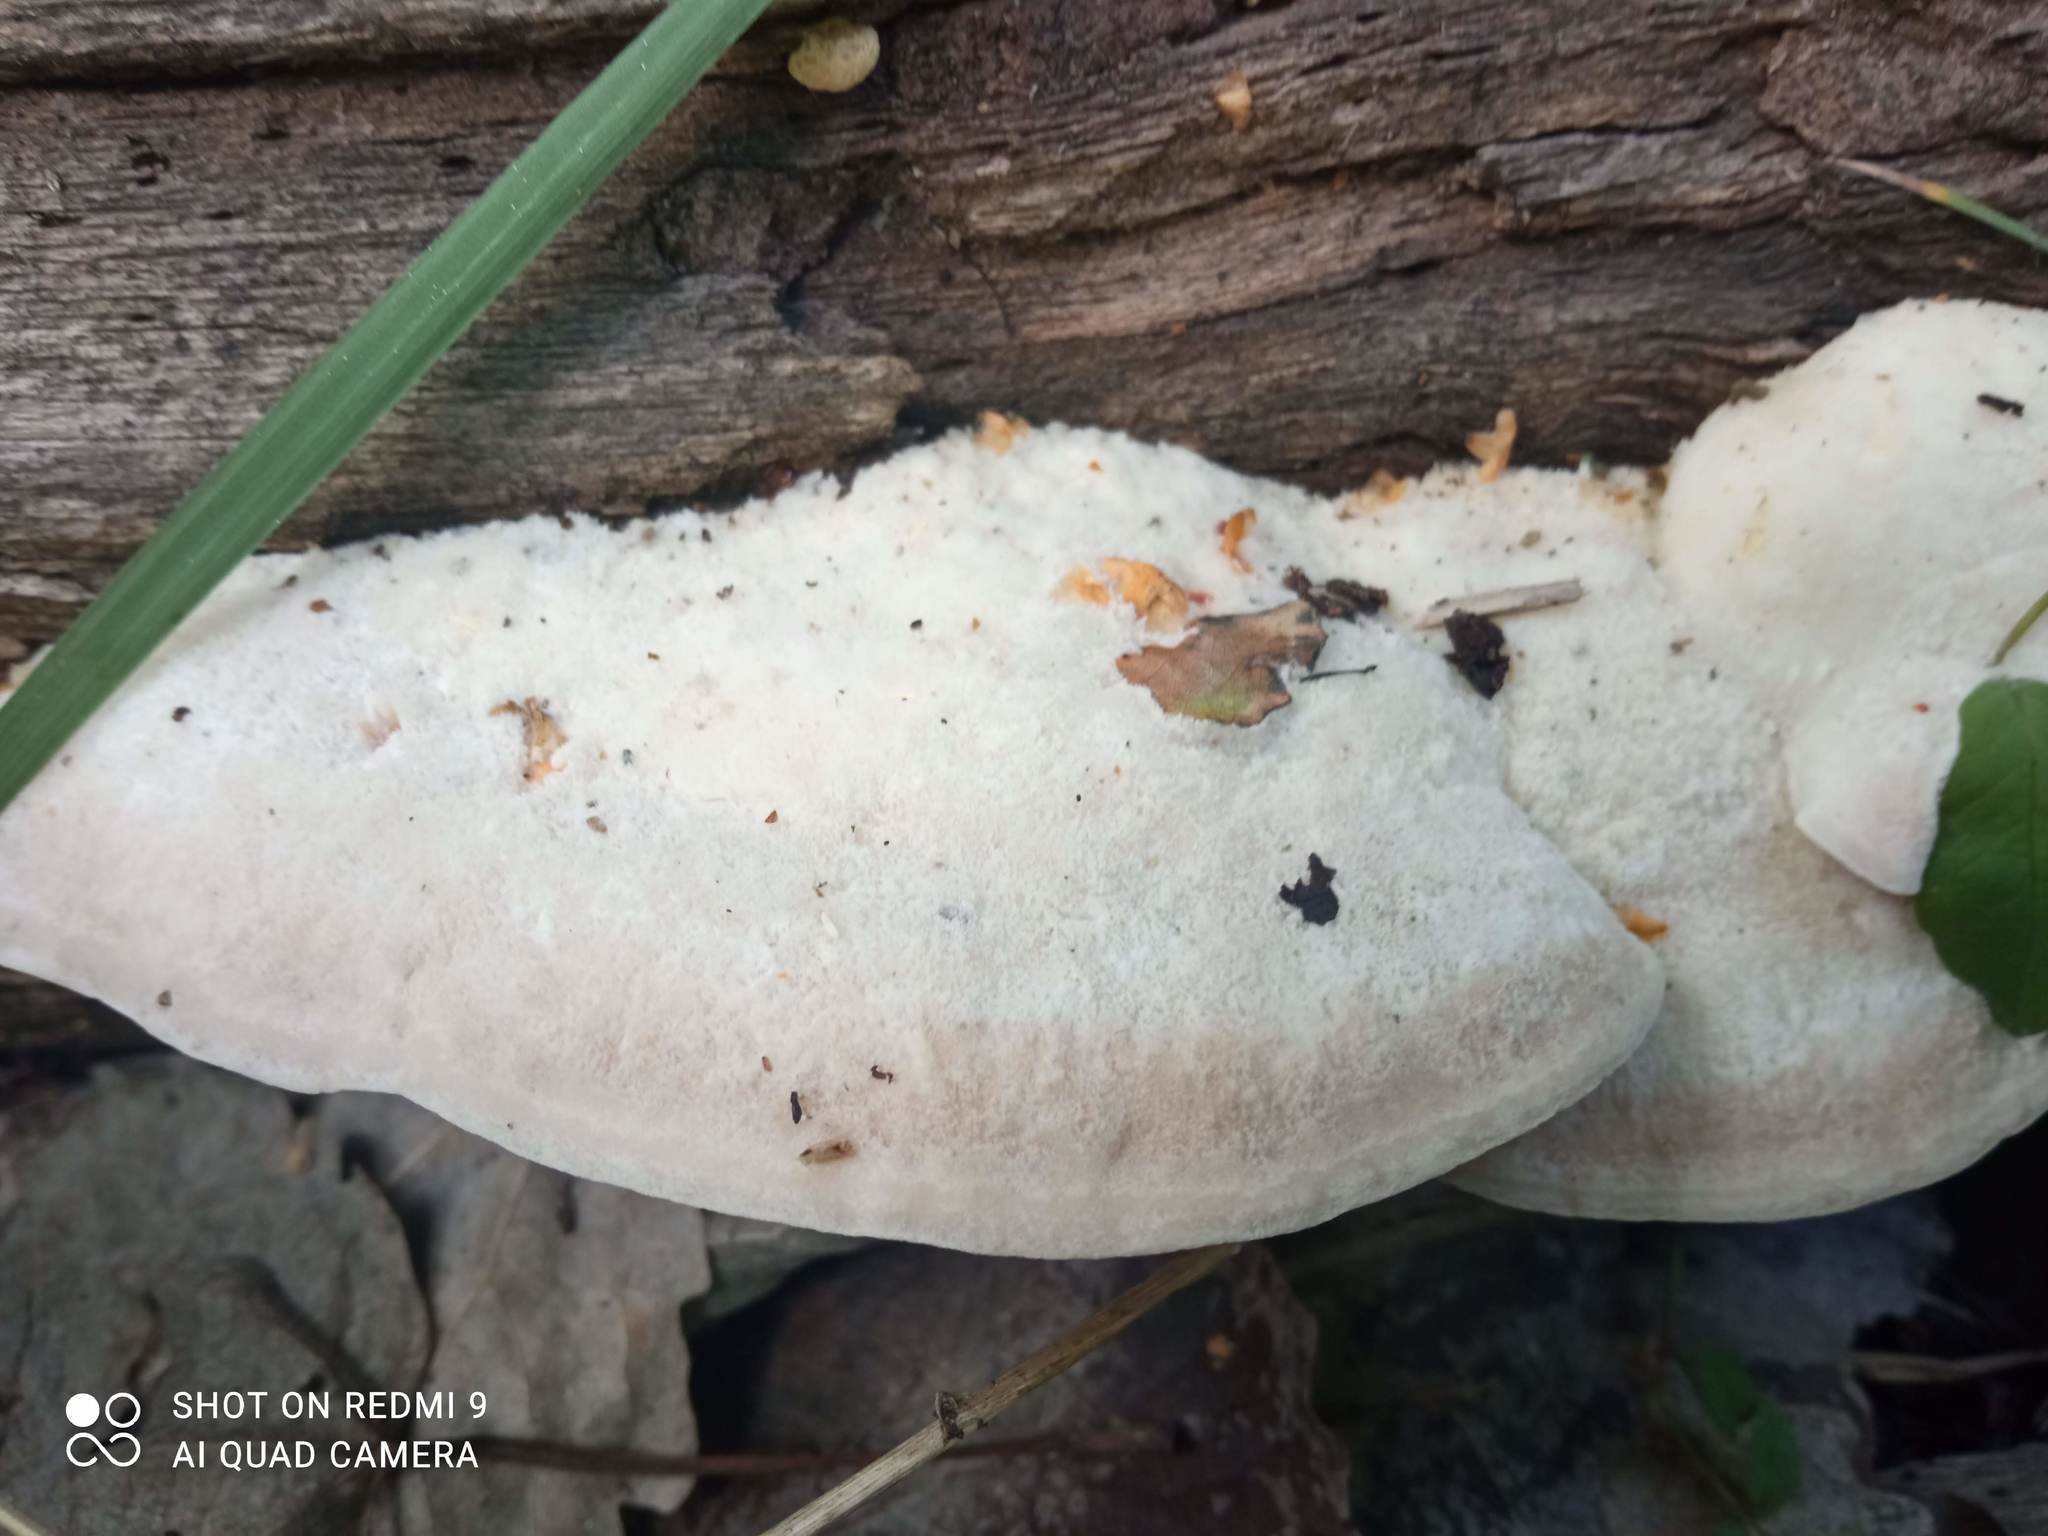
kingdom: Fungi
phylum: Basidiomycota
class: Agaricomycetes
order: Polyporales
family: Polyporaceae
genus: Trametes
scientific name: Trametes suaveolens
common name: Fragrant bracket
